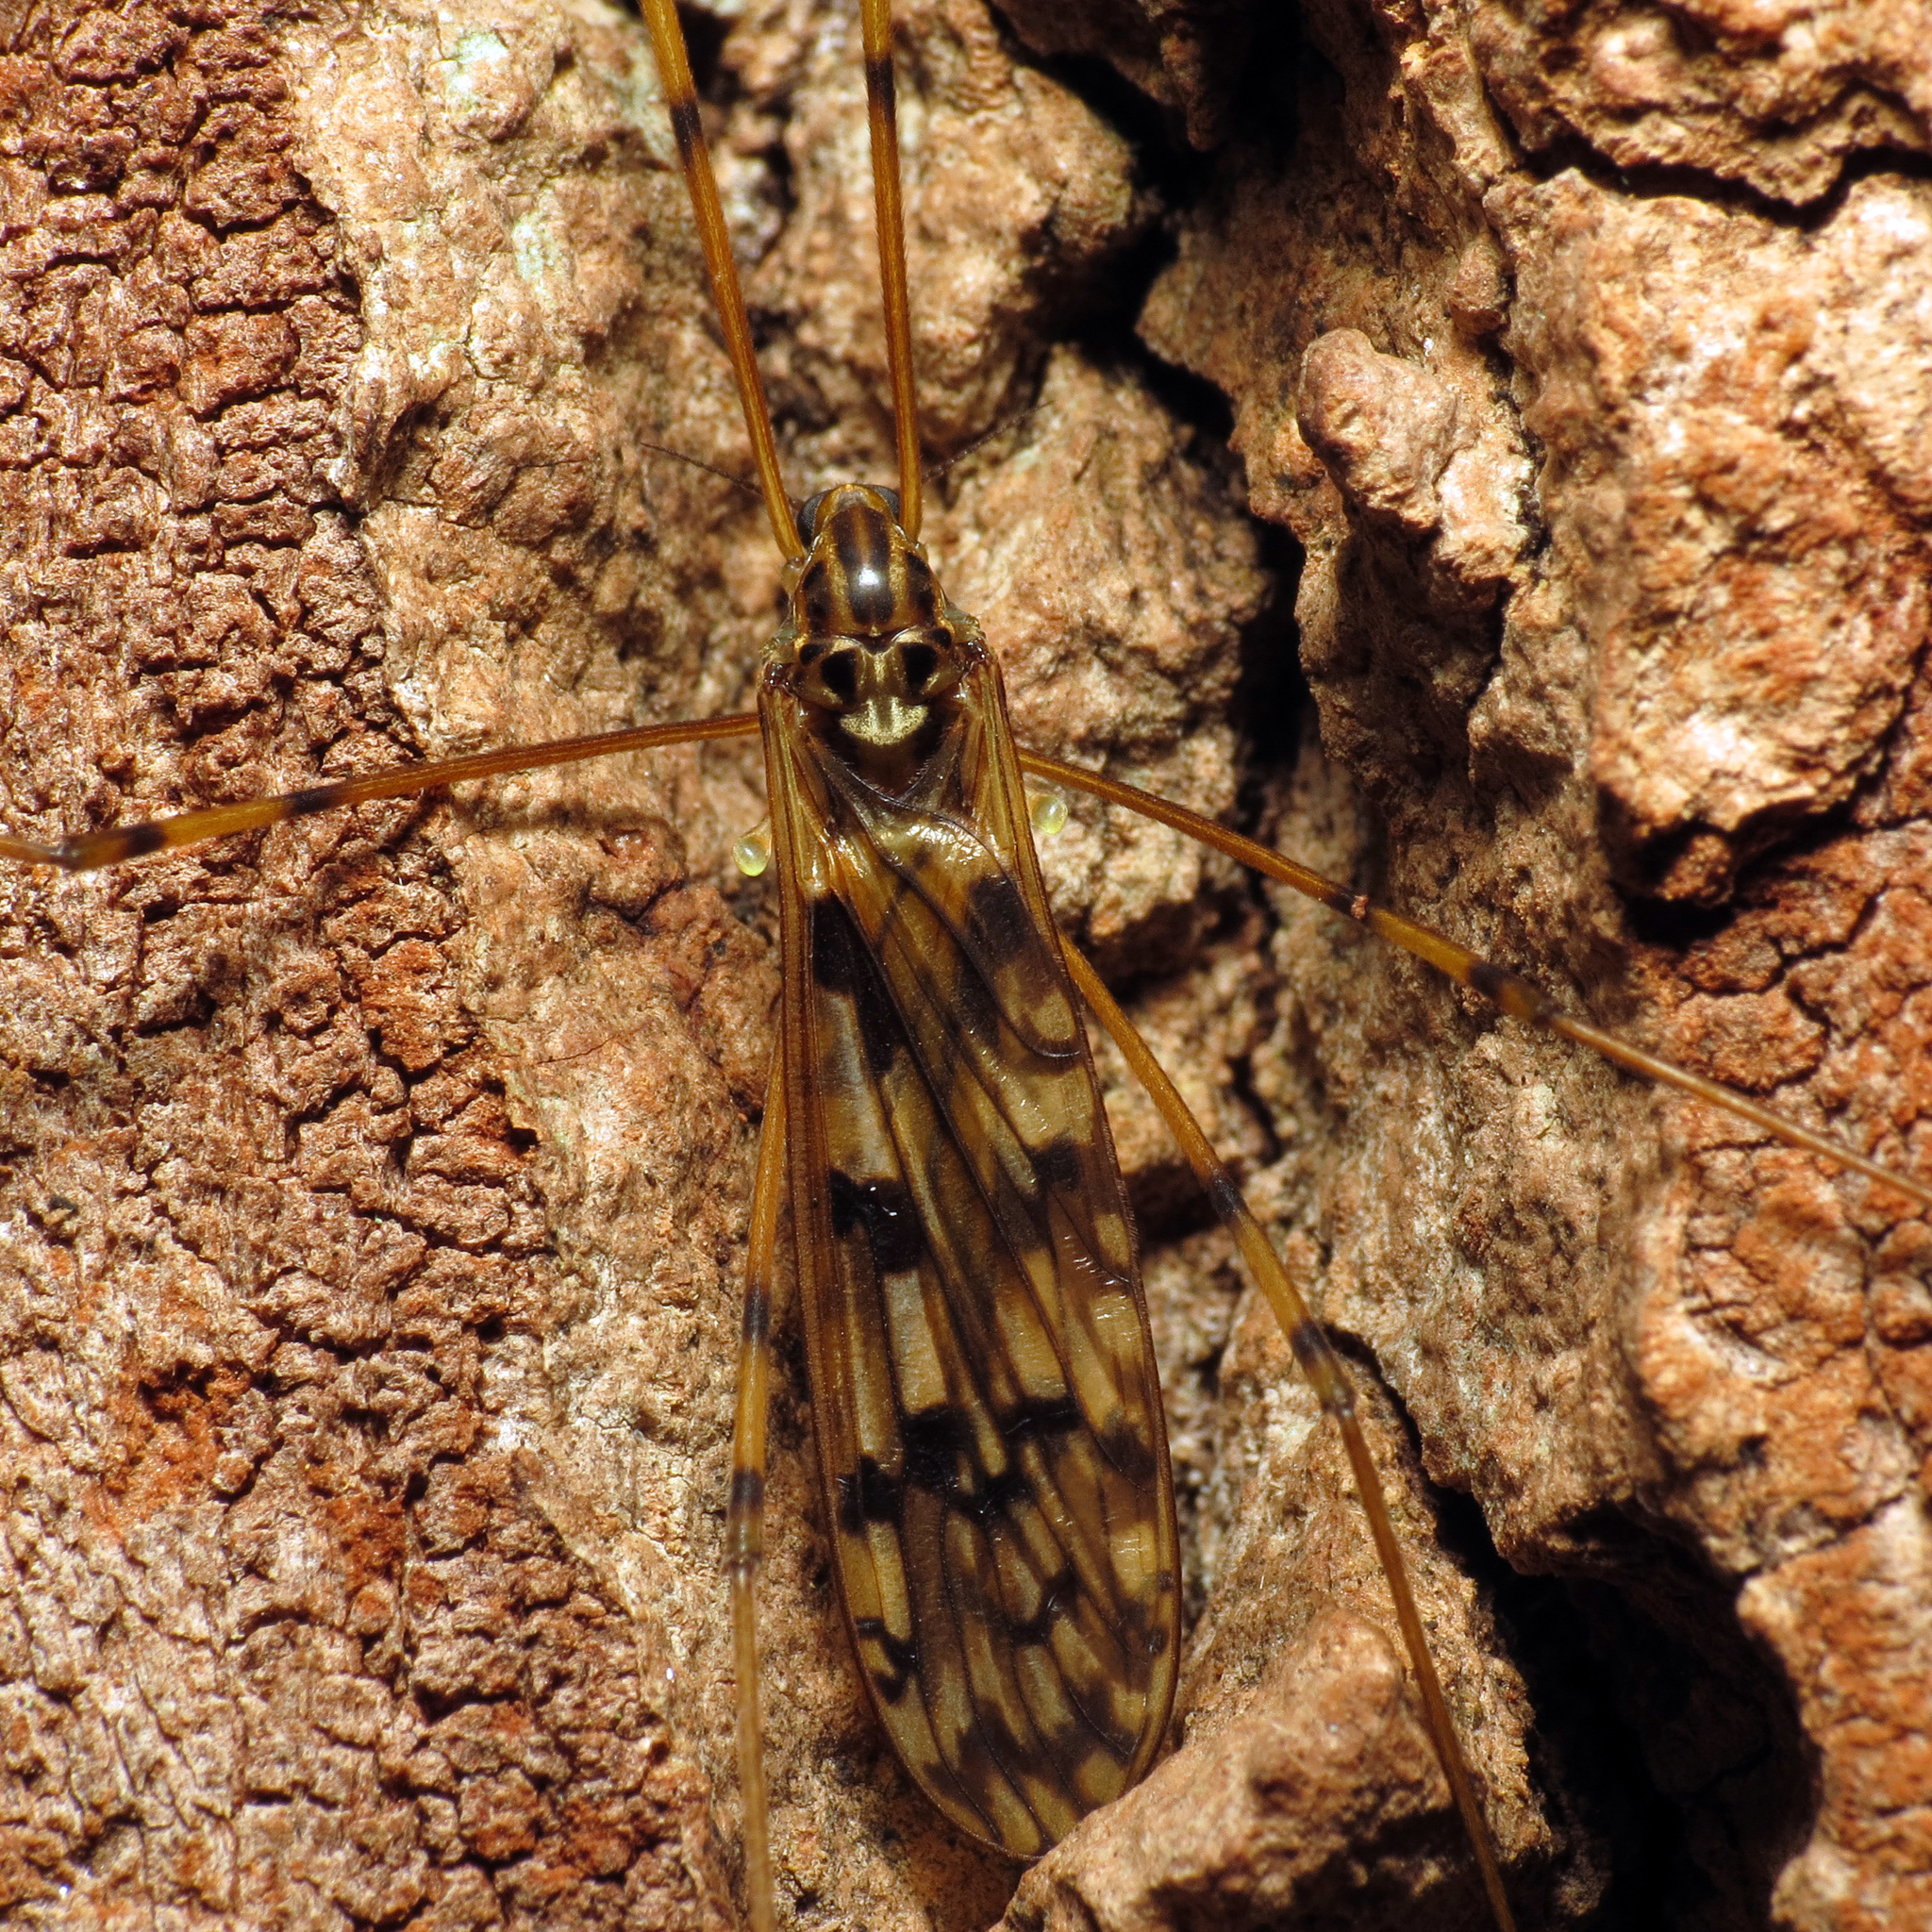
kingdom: Animalia
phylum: Arthropoda
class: Insecta
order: Diptera
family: Limoniidae
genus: Limonia
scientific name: Limonia cinctipes
